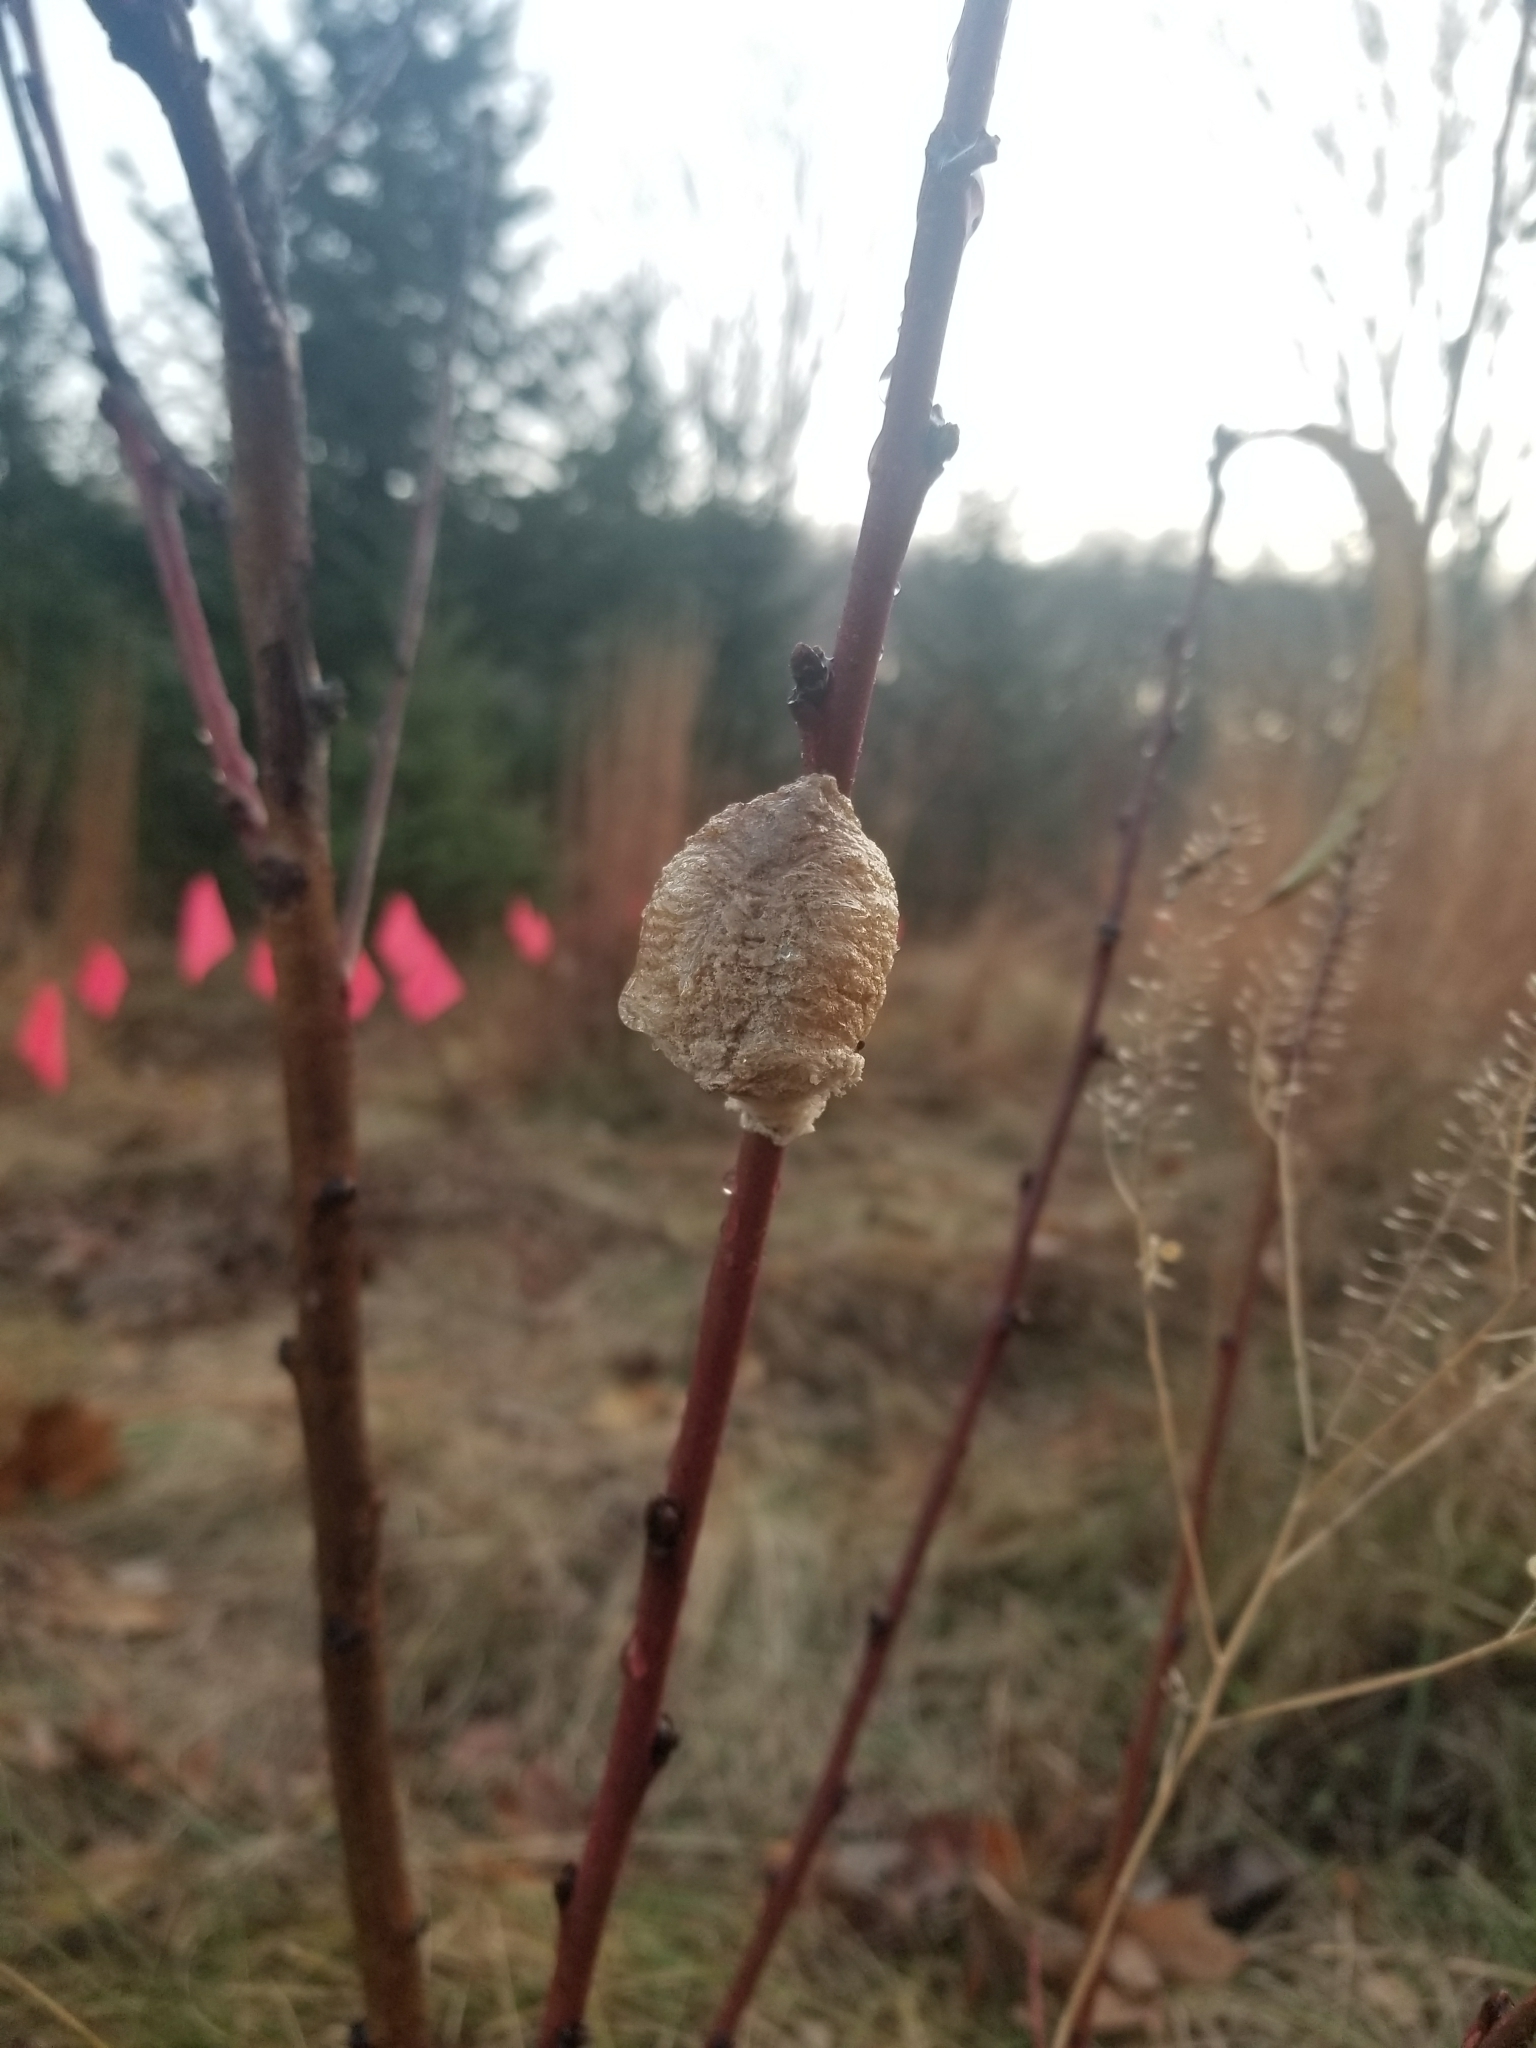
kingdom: Animalia
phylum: Arthropoda
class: Insecta
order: Mantodea
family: Mantidae
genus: Tenodera
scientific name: Tenodera sinensis
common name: Chinese mantis
